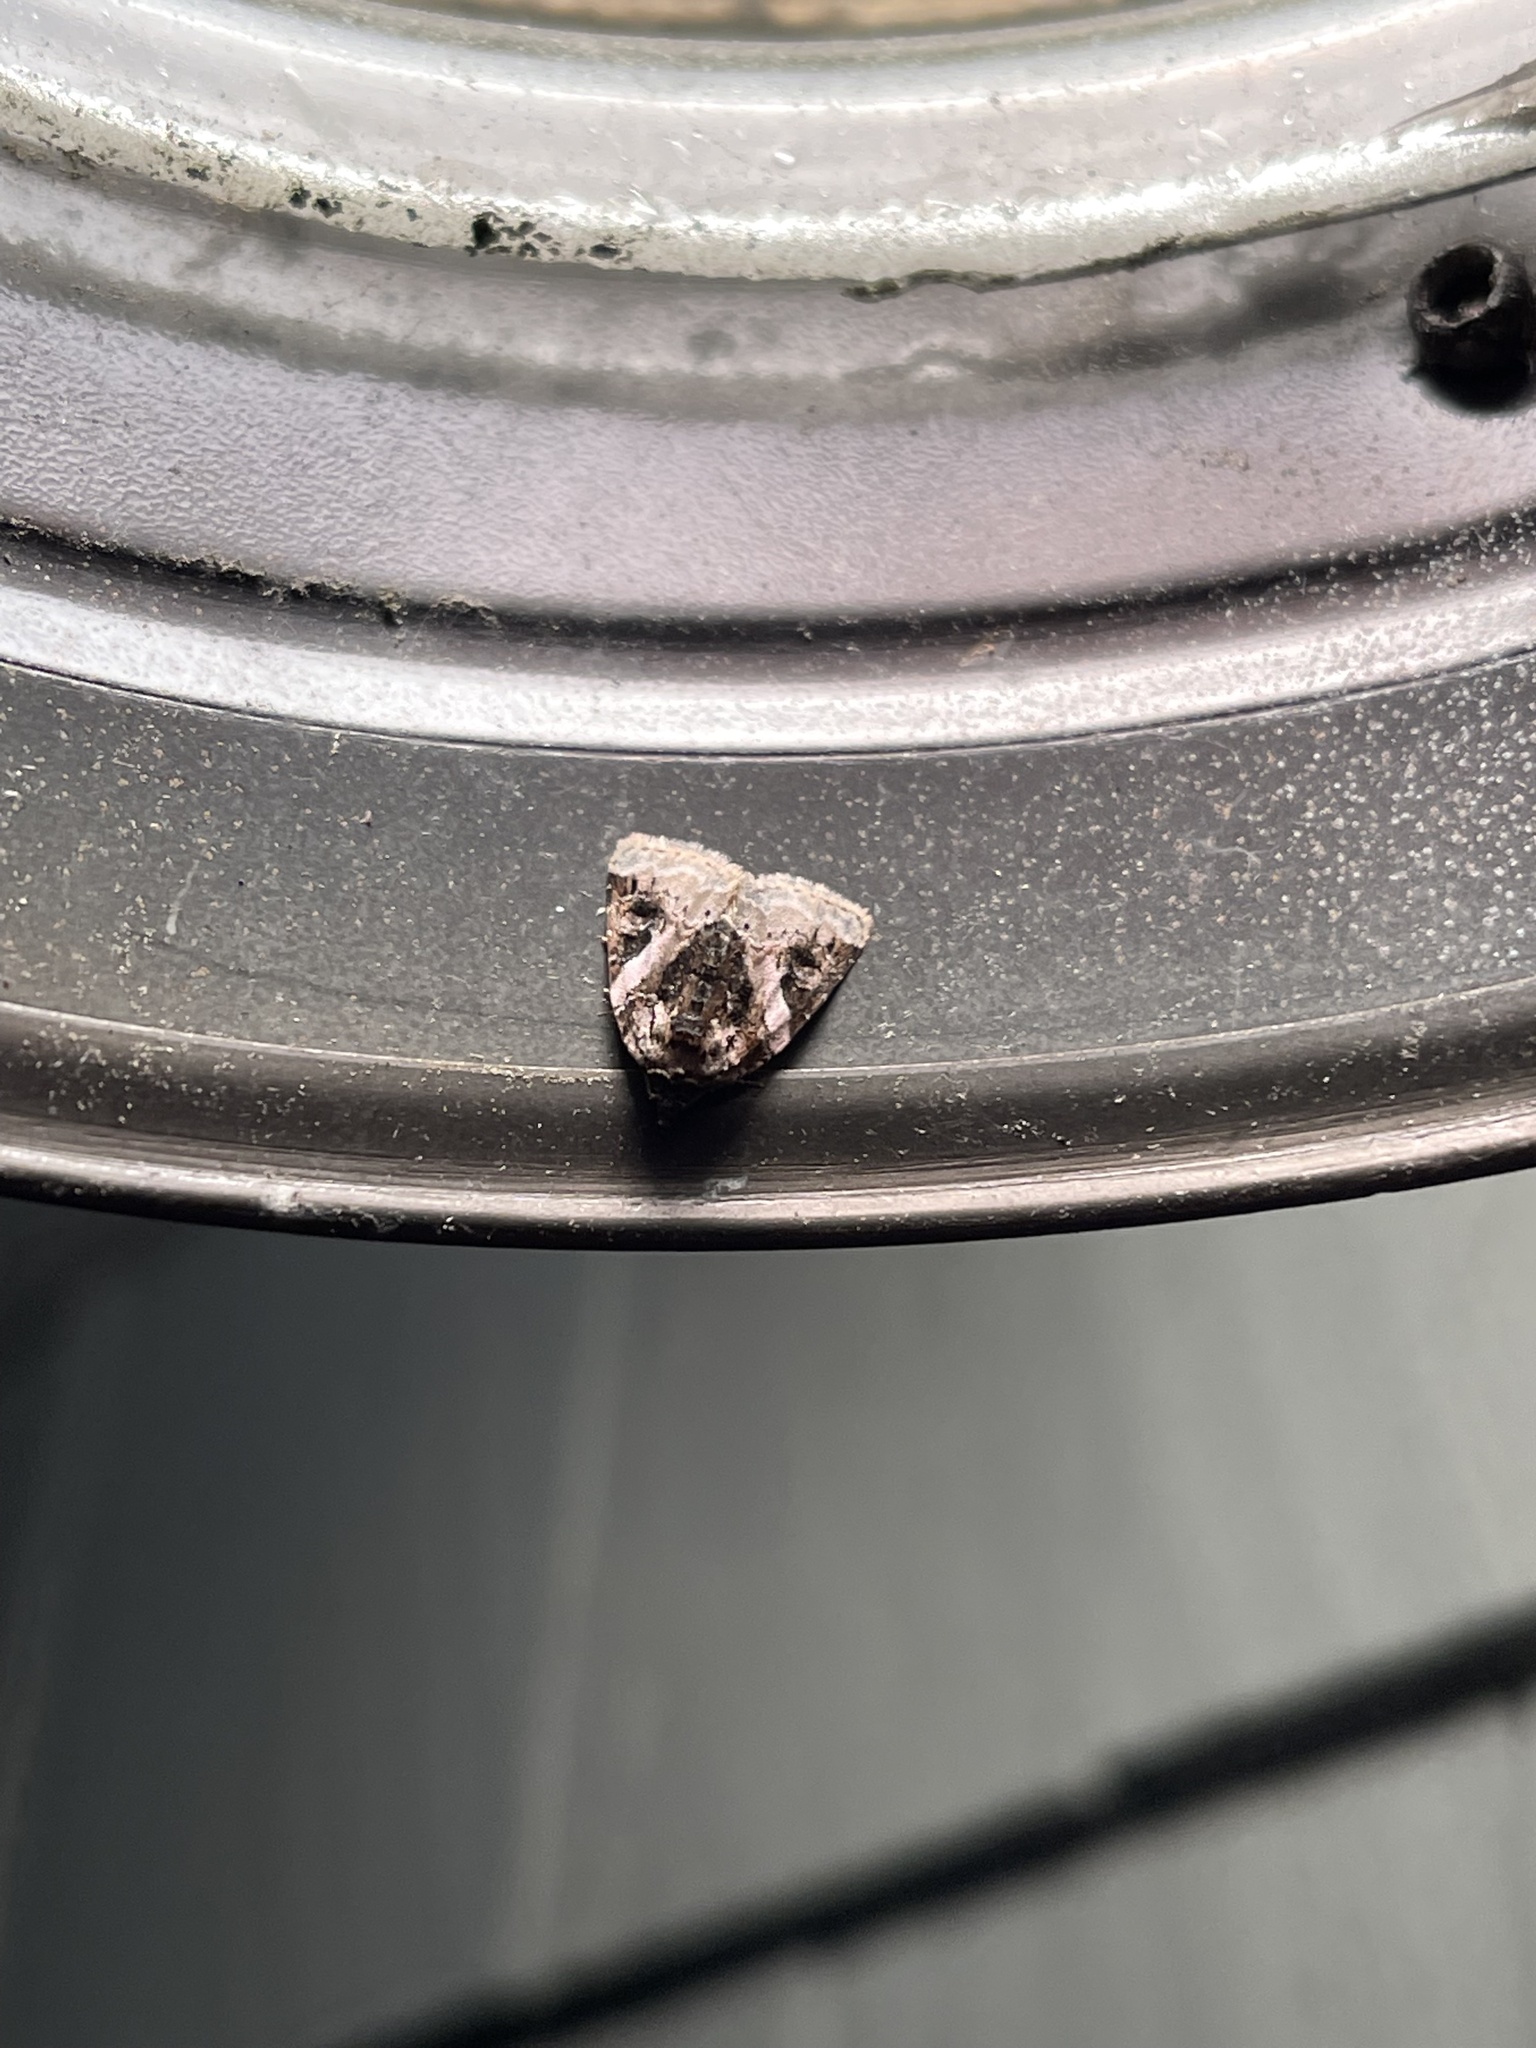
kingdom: Animalia
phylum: Arthropoda
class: Insecta
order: Lepidoptera
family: Noctuidae
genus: Pseudeustrotia
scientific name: Pseudeustrotia carneola
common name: Pink-barred lithacodia moth
